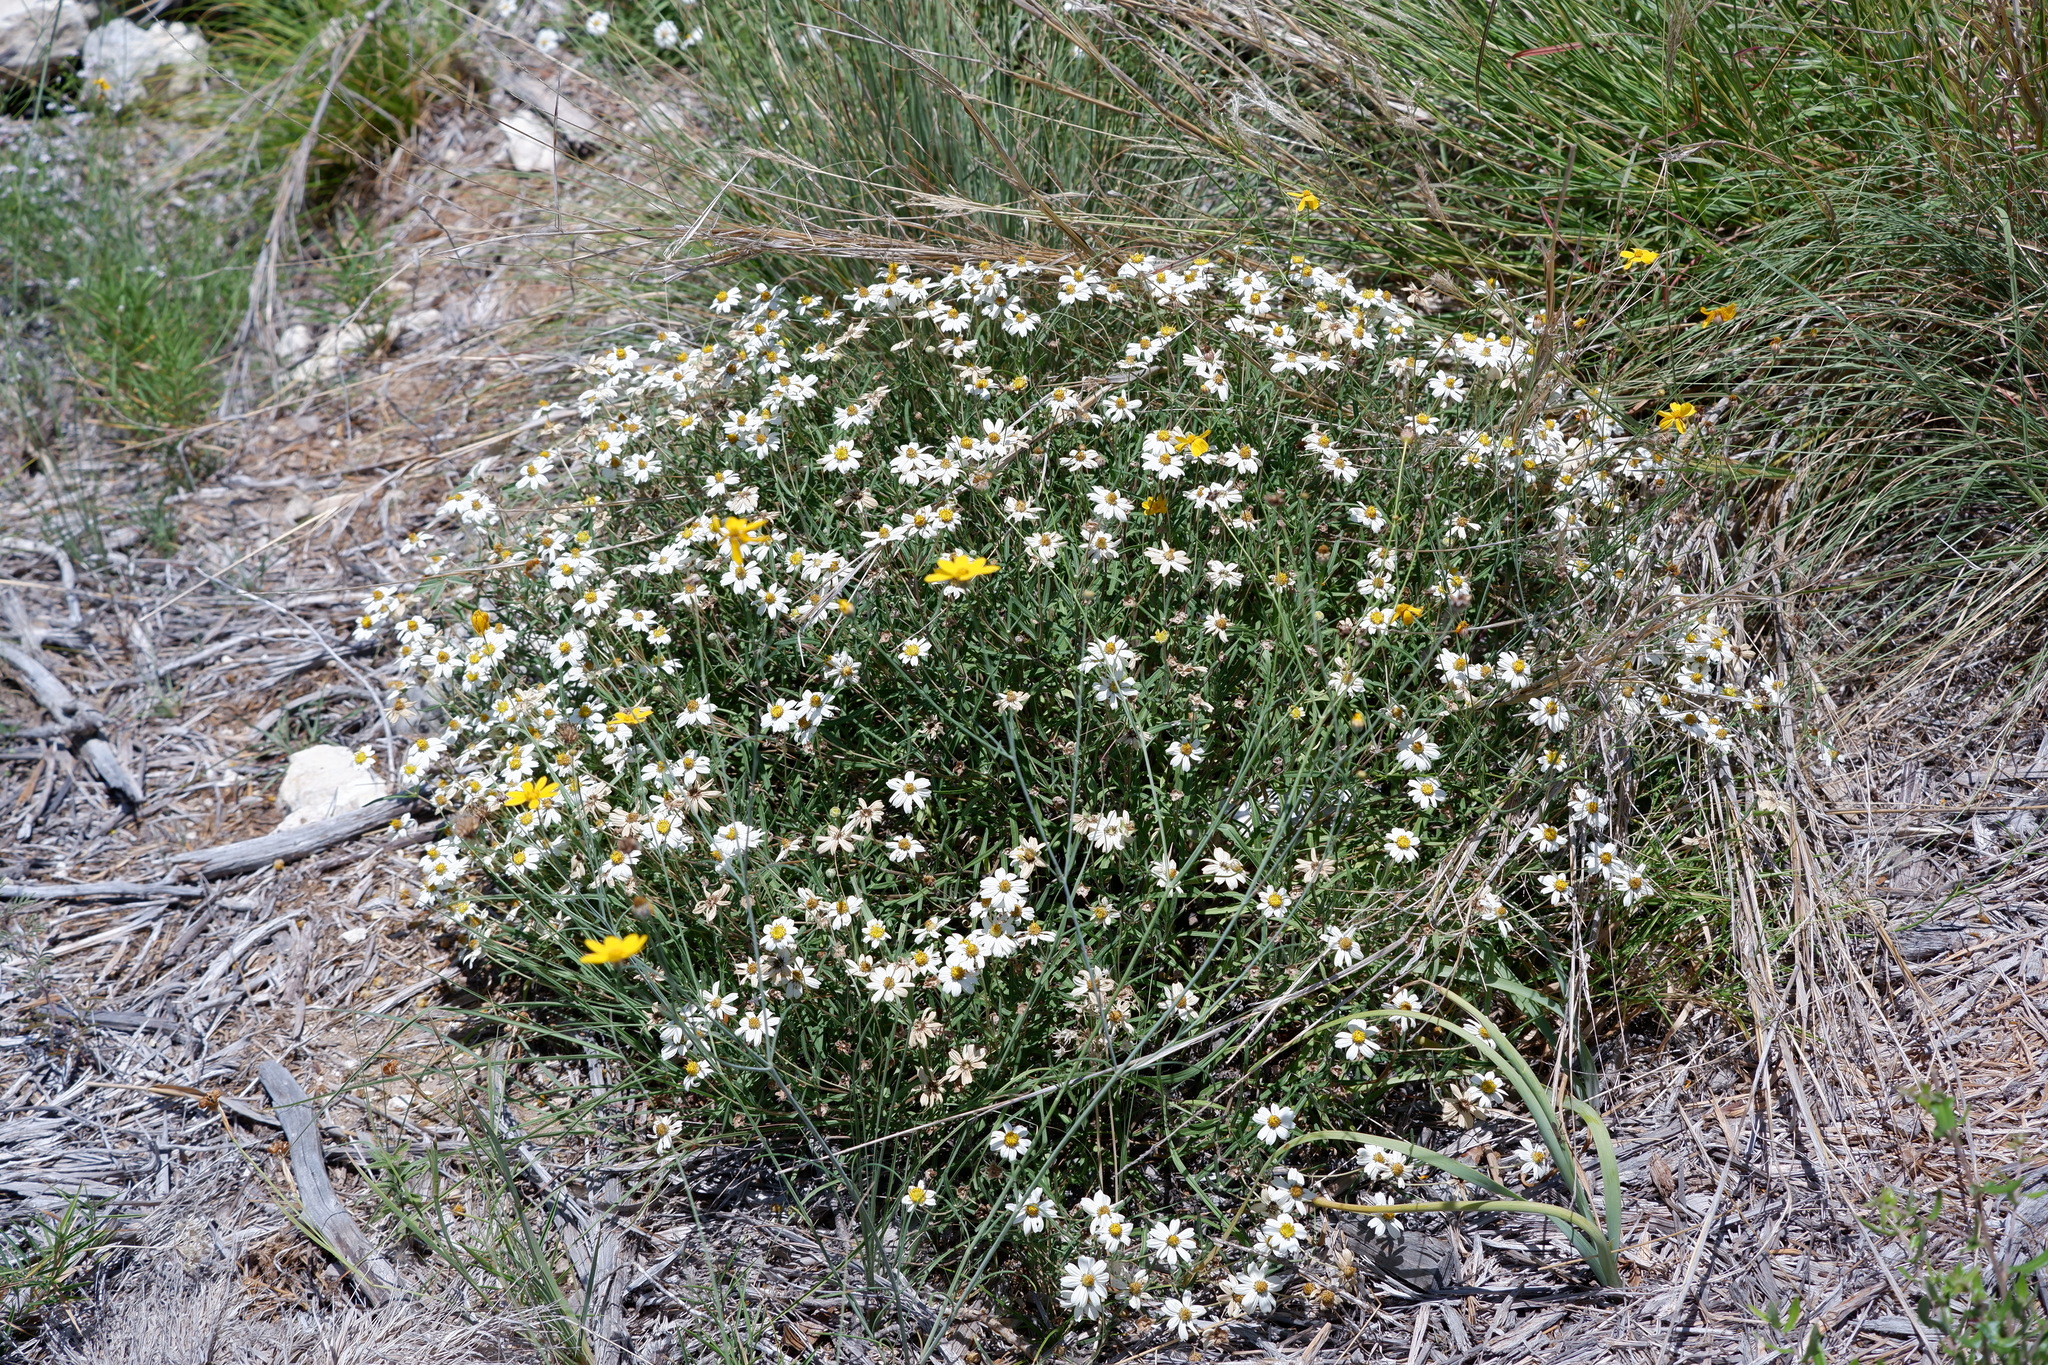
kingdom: Plantae
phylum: Tracheophyta
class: Magnoliopsida
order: Asterales
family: Asteraceae
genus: Melampodium
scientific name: Melampodium leucanthum
